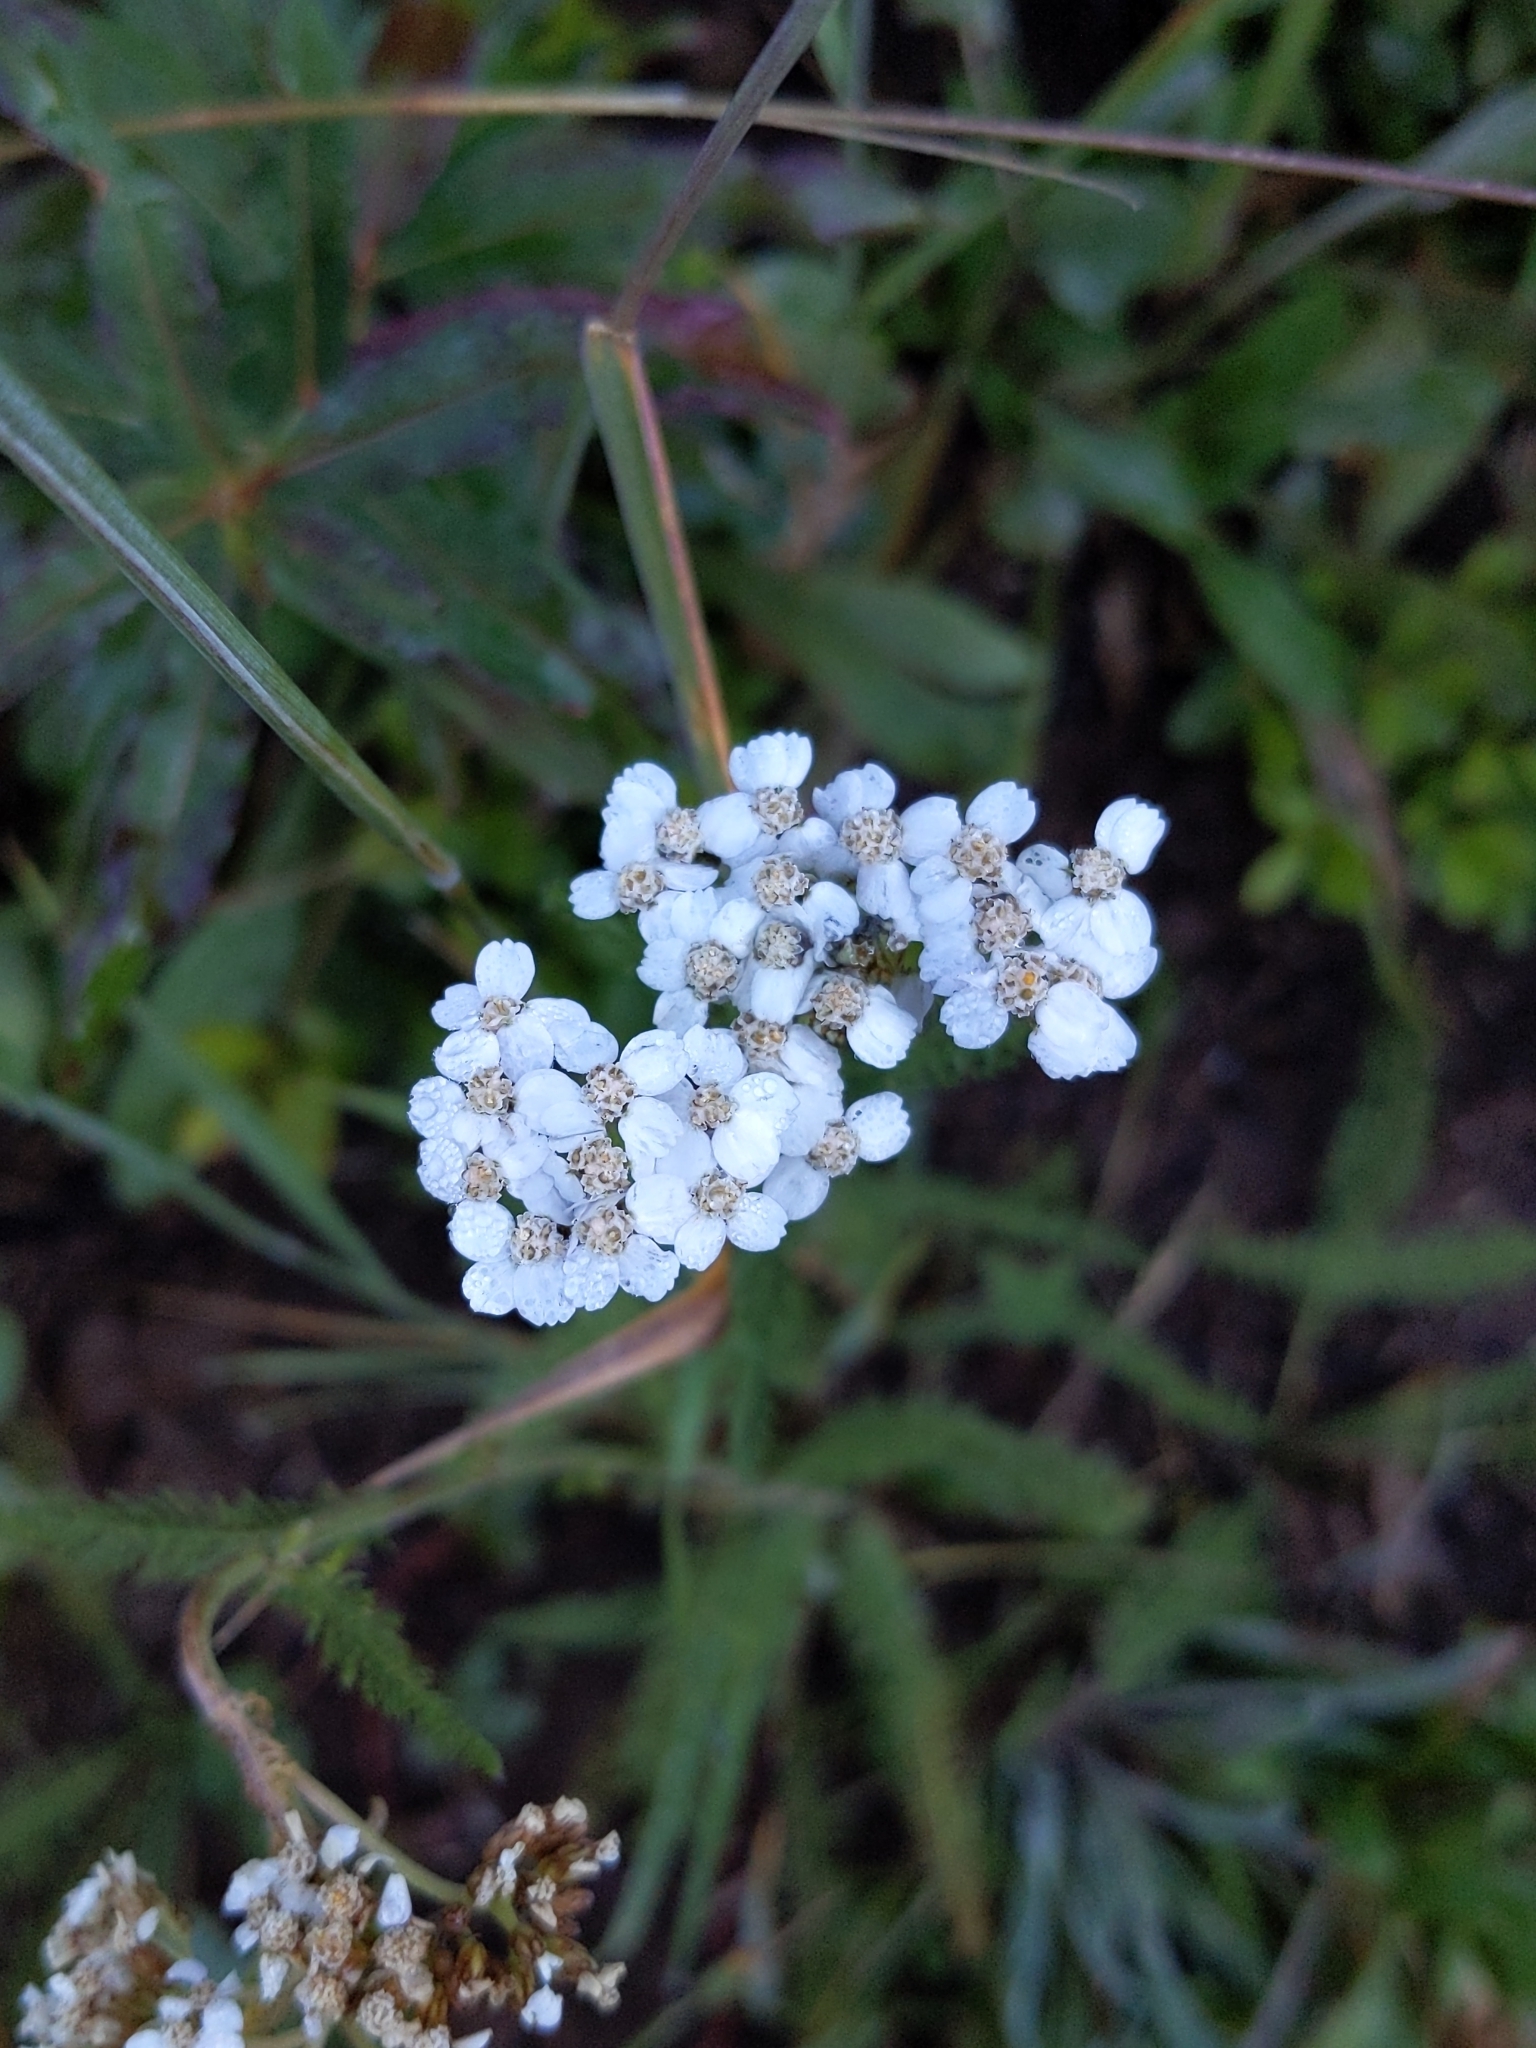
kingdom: Plantae
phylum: Tracheophyta
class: Magnoliopsida
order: Asterales
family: Asteraceae
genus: Achillea
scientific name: Achillea millefolium
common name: Yarrow
